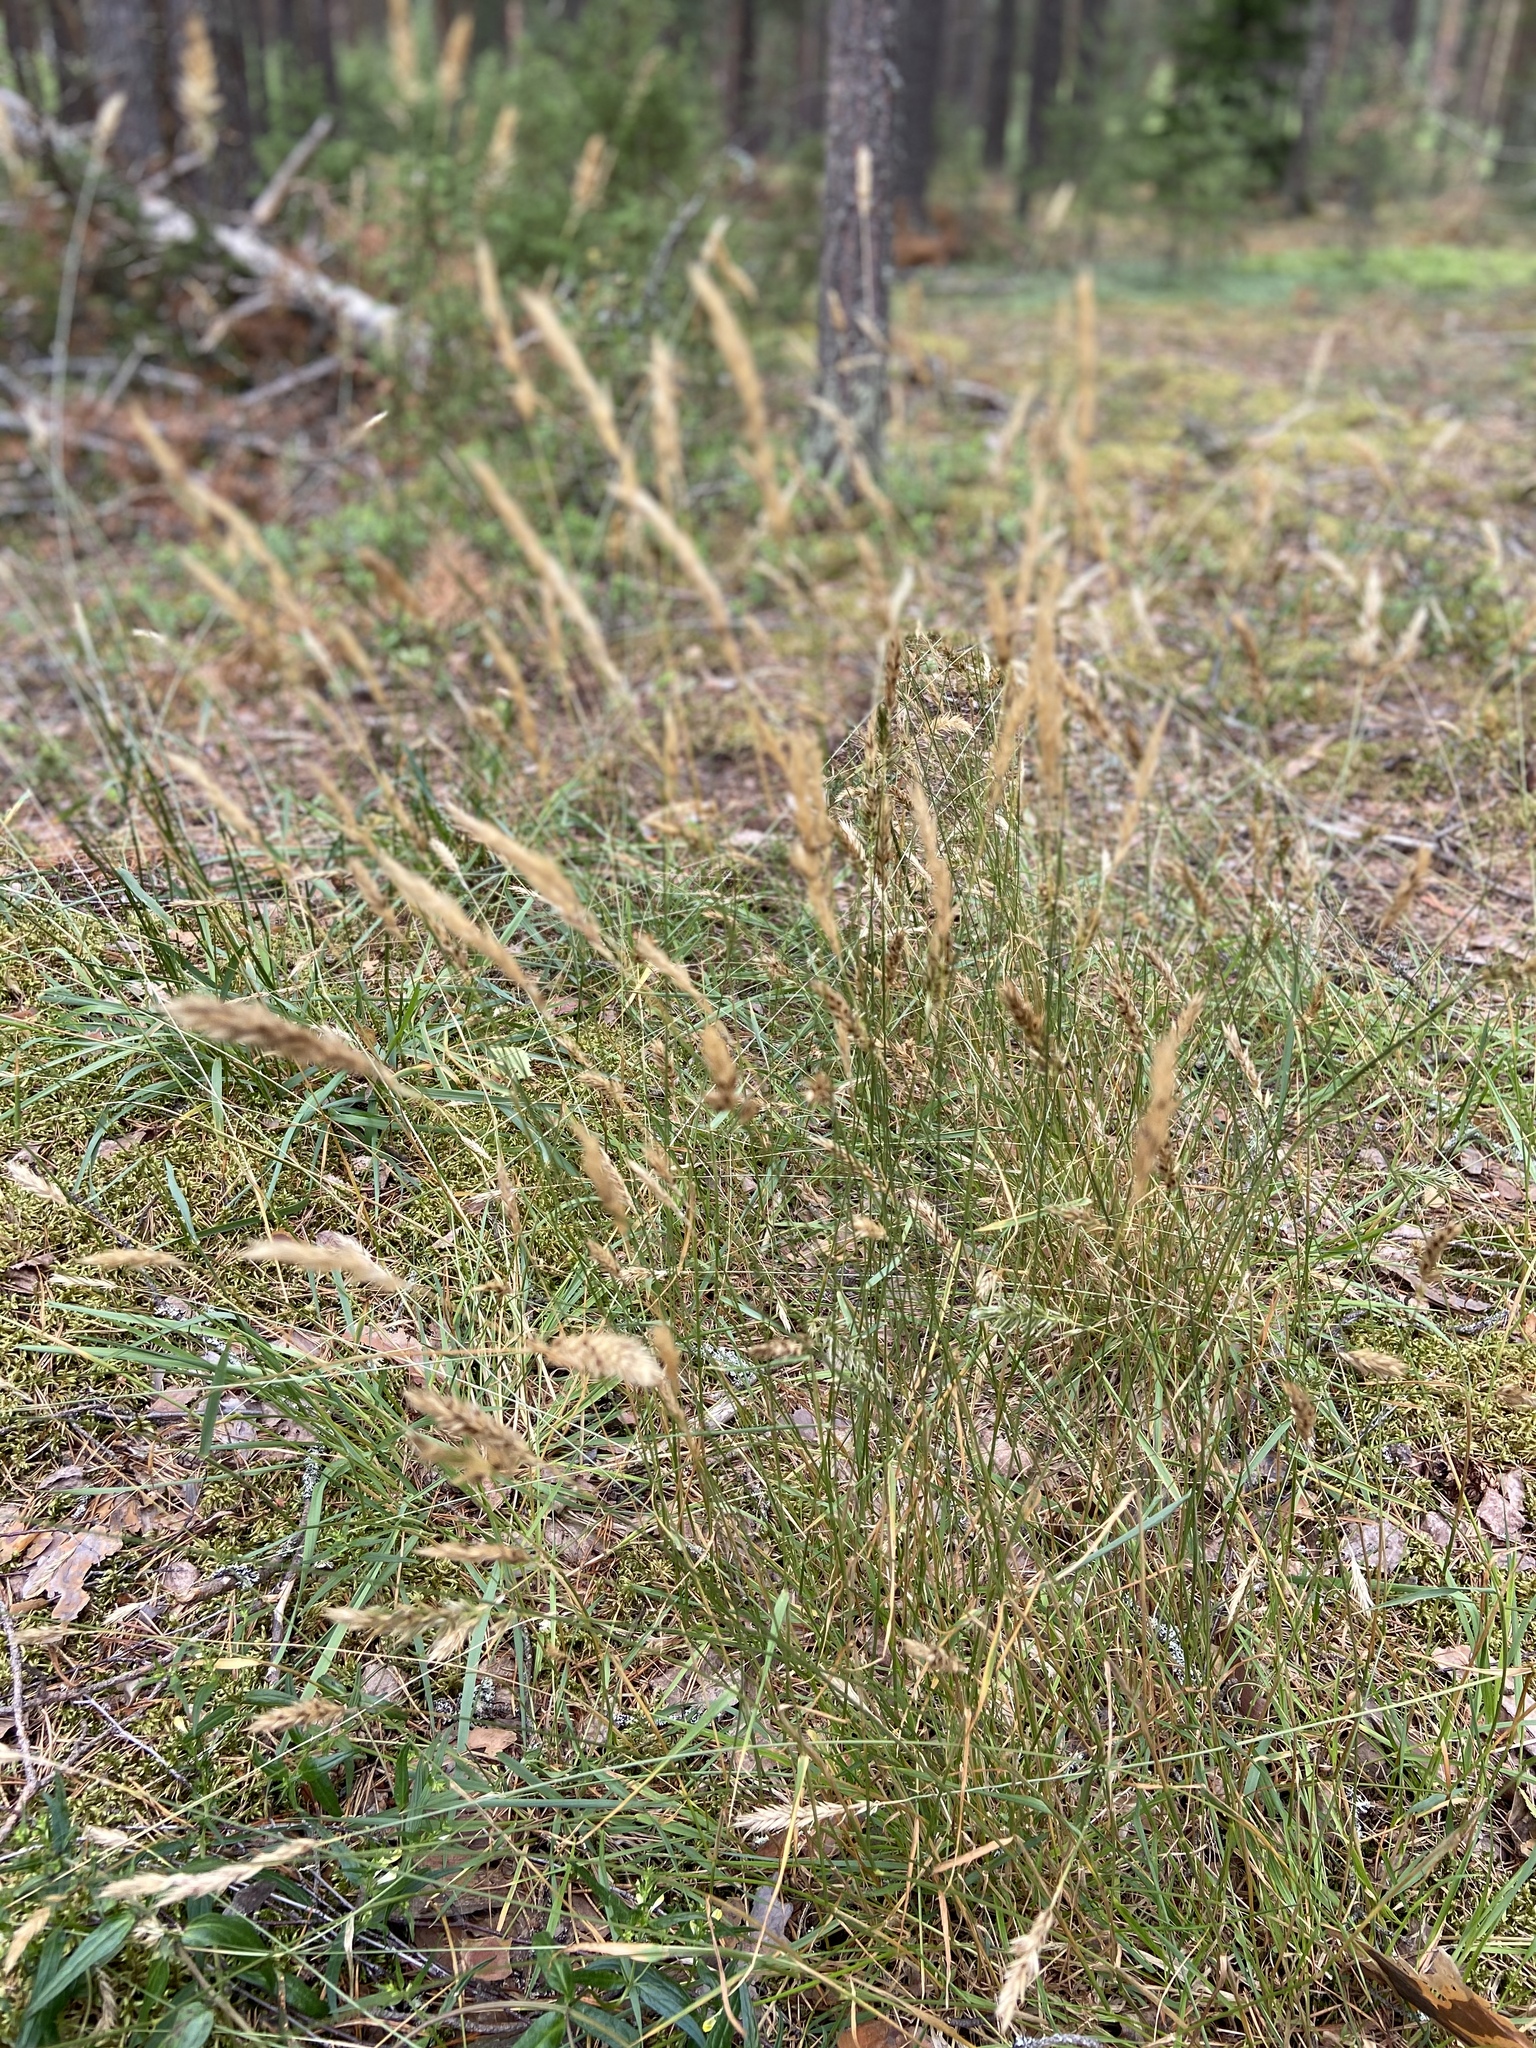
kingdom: Plantae
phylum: Tracheophyta
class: Liliopsida
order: Poales
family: Poaceae
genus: Anthoxanthum
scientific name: Anthoxanthum odoratum
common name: Sweet vernalgrass
